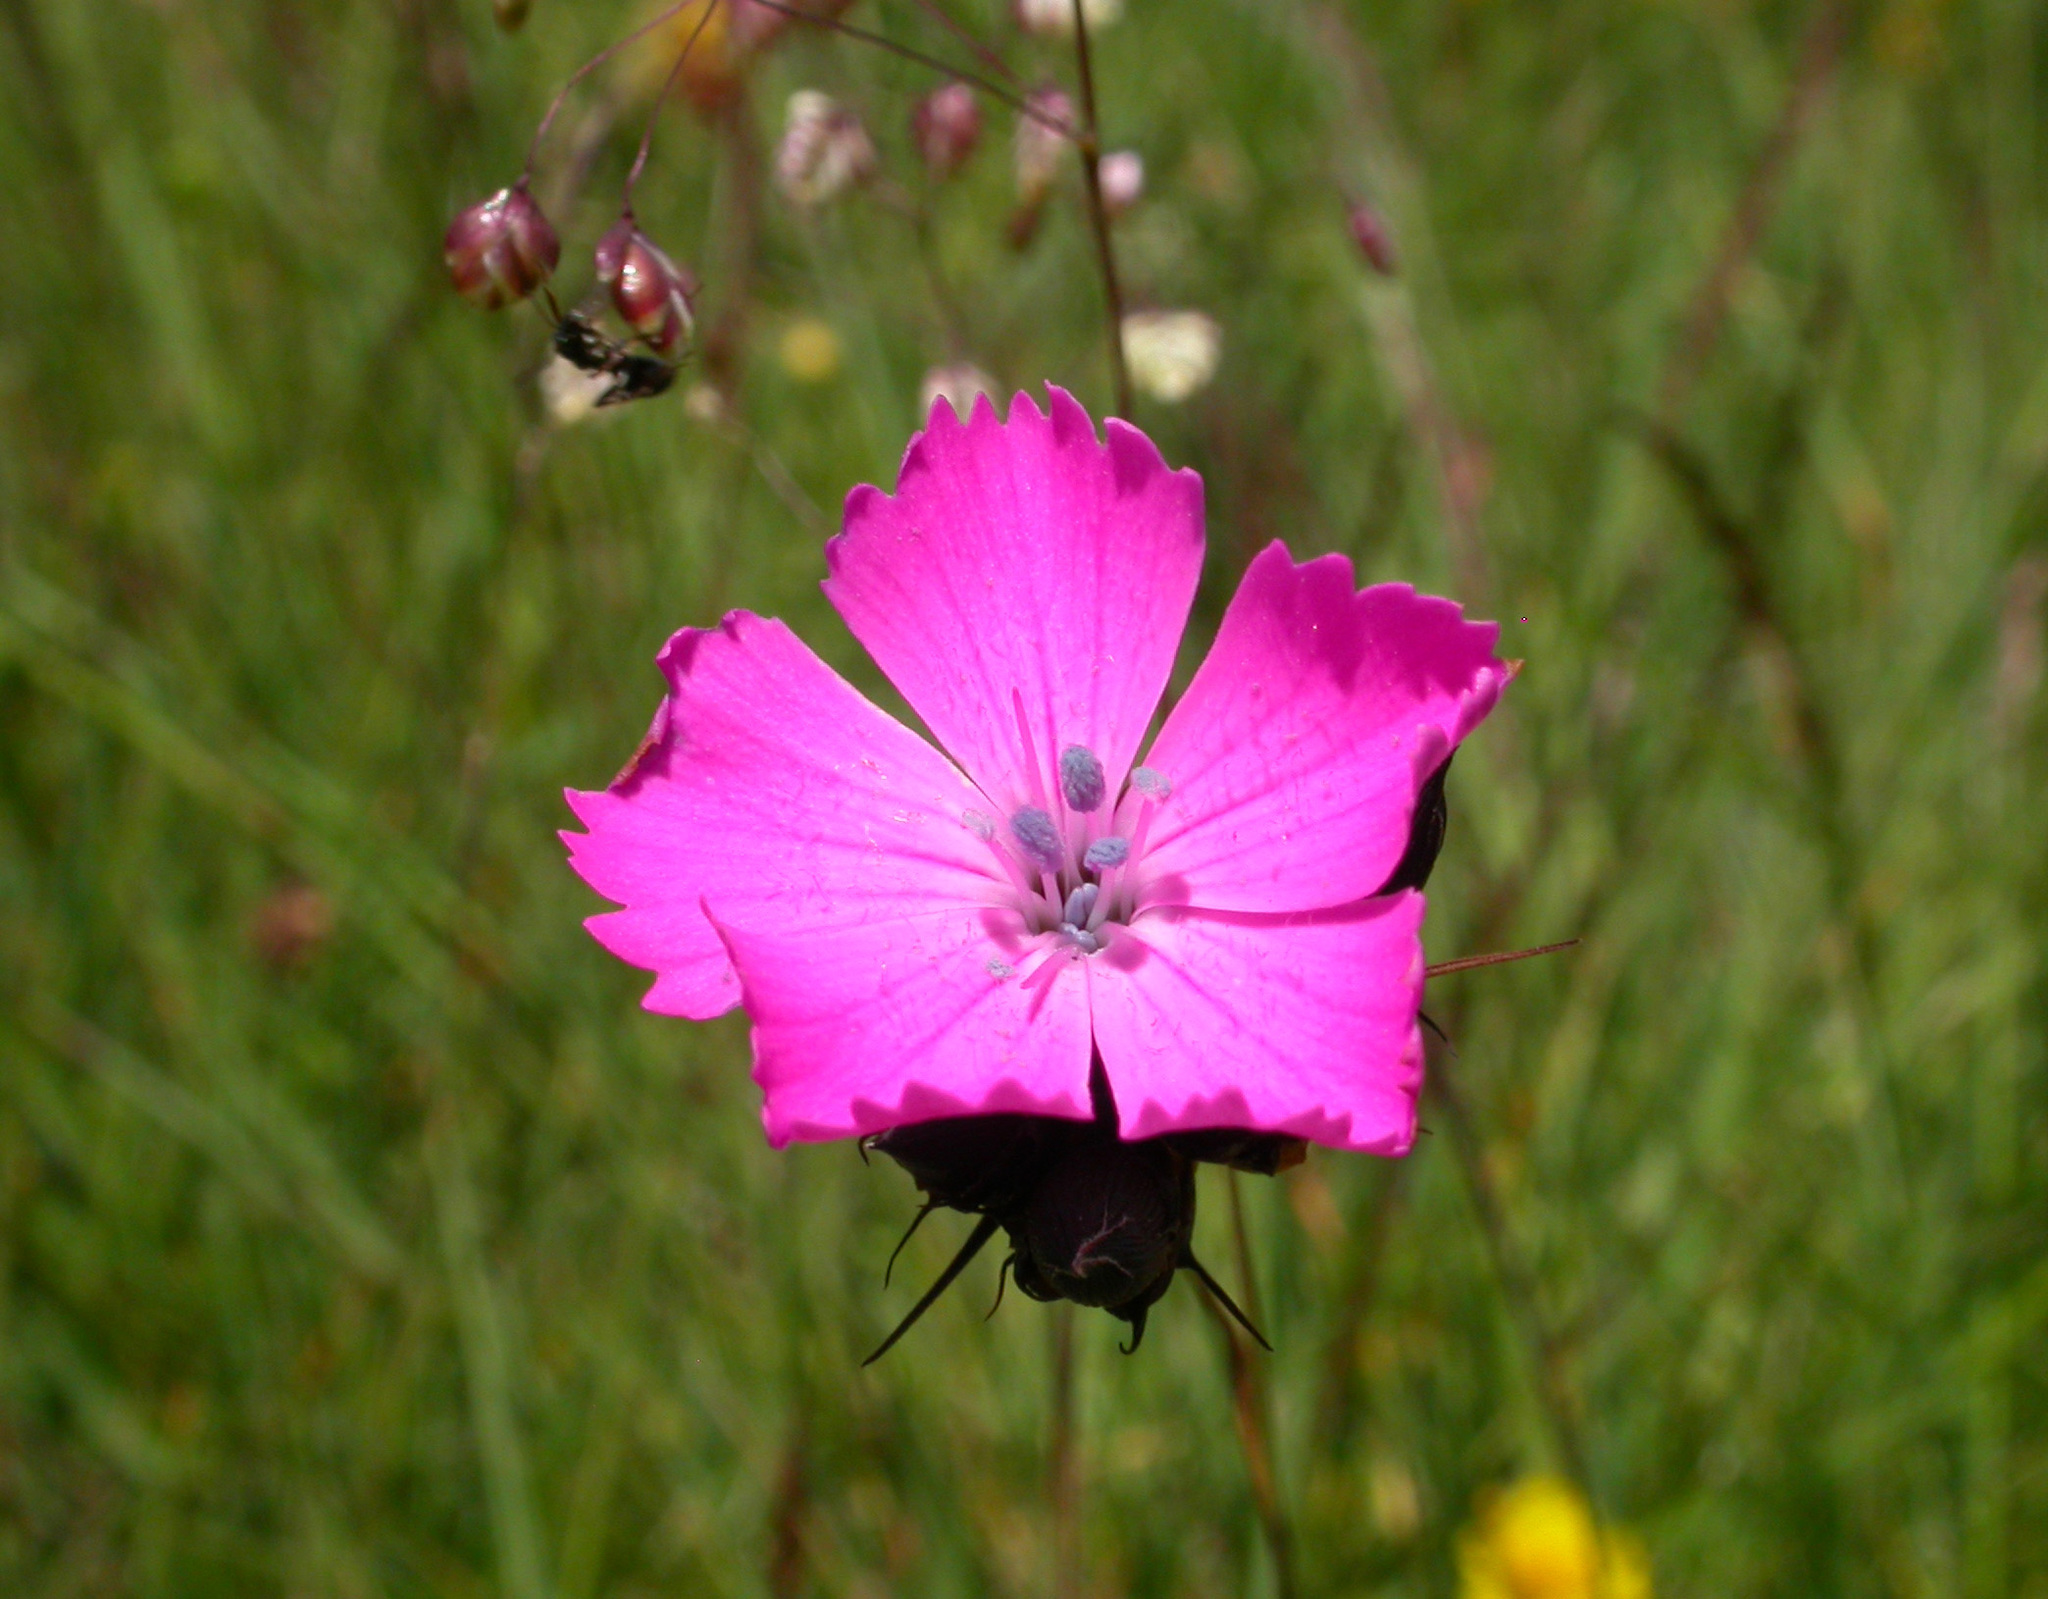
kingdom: Plantae
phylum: Tracheophyta
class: Magnoliopsida
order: Caryophyllales
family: Caryophyllaceae
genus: Dianthus
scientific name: Dianthus carthusianorum
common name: Carthusian pink
